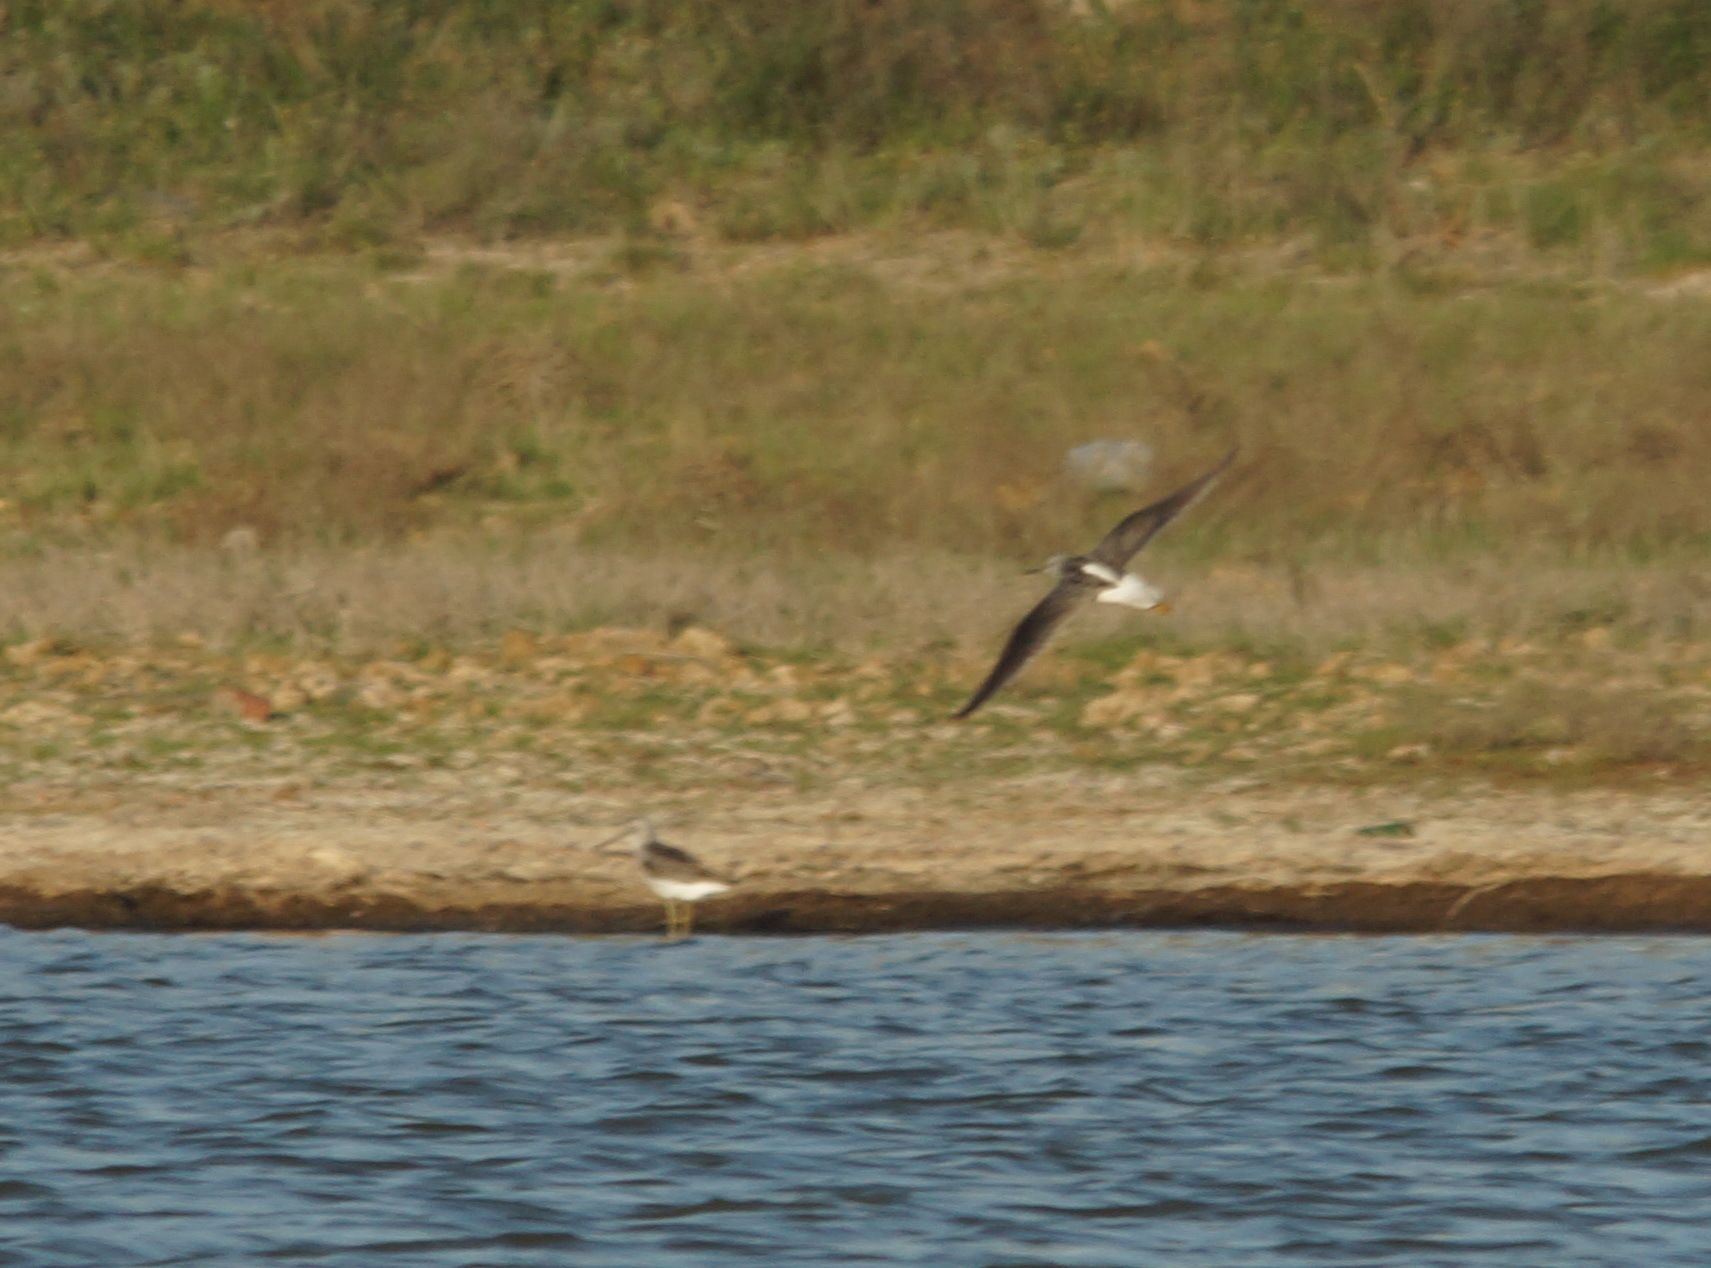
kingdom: Animalia
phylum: Chordata
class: Aves
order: Charadriiformes
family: Scolopacidae
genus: Tringa
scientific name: Tringa nebularia
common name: Common greenshank
